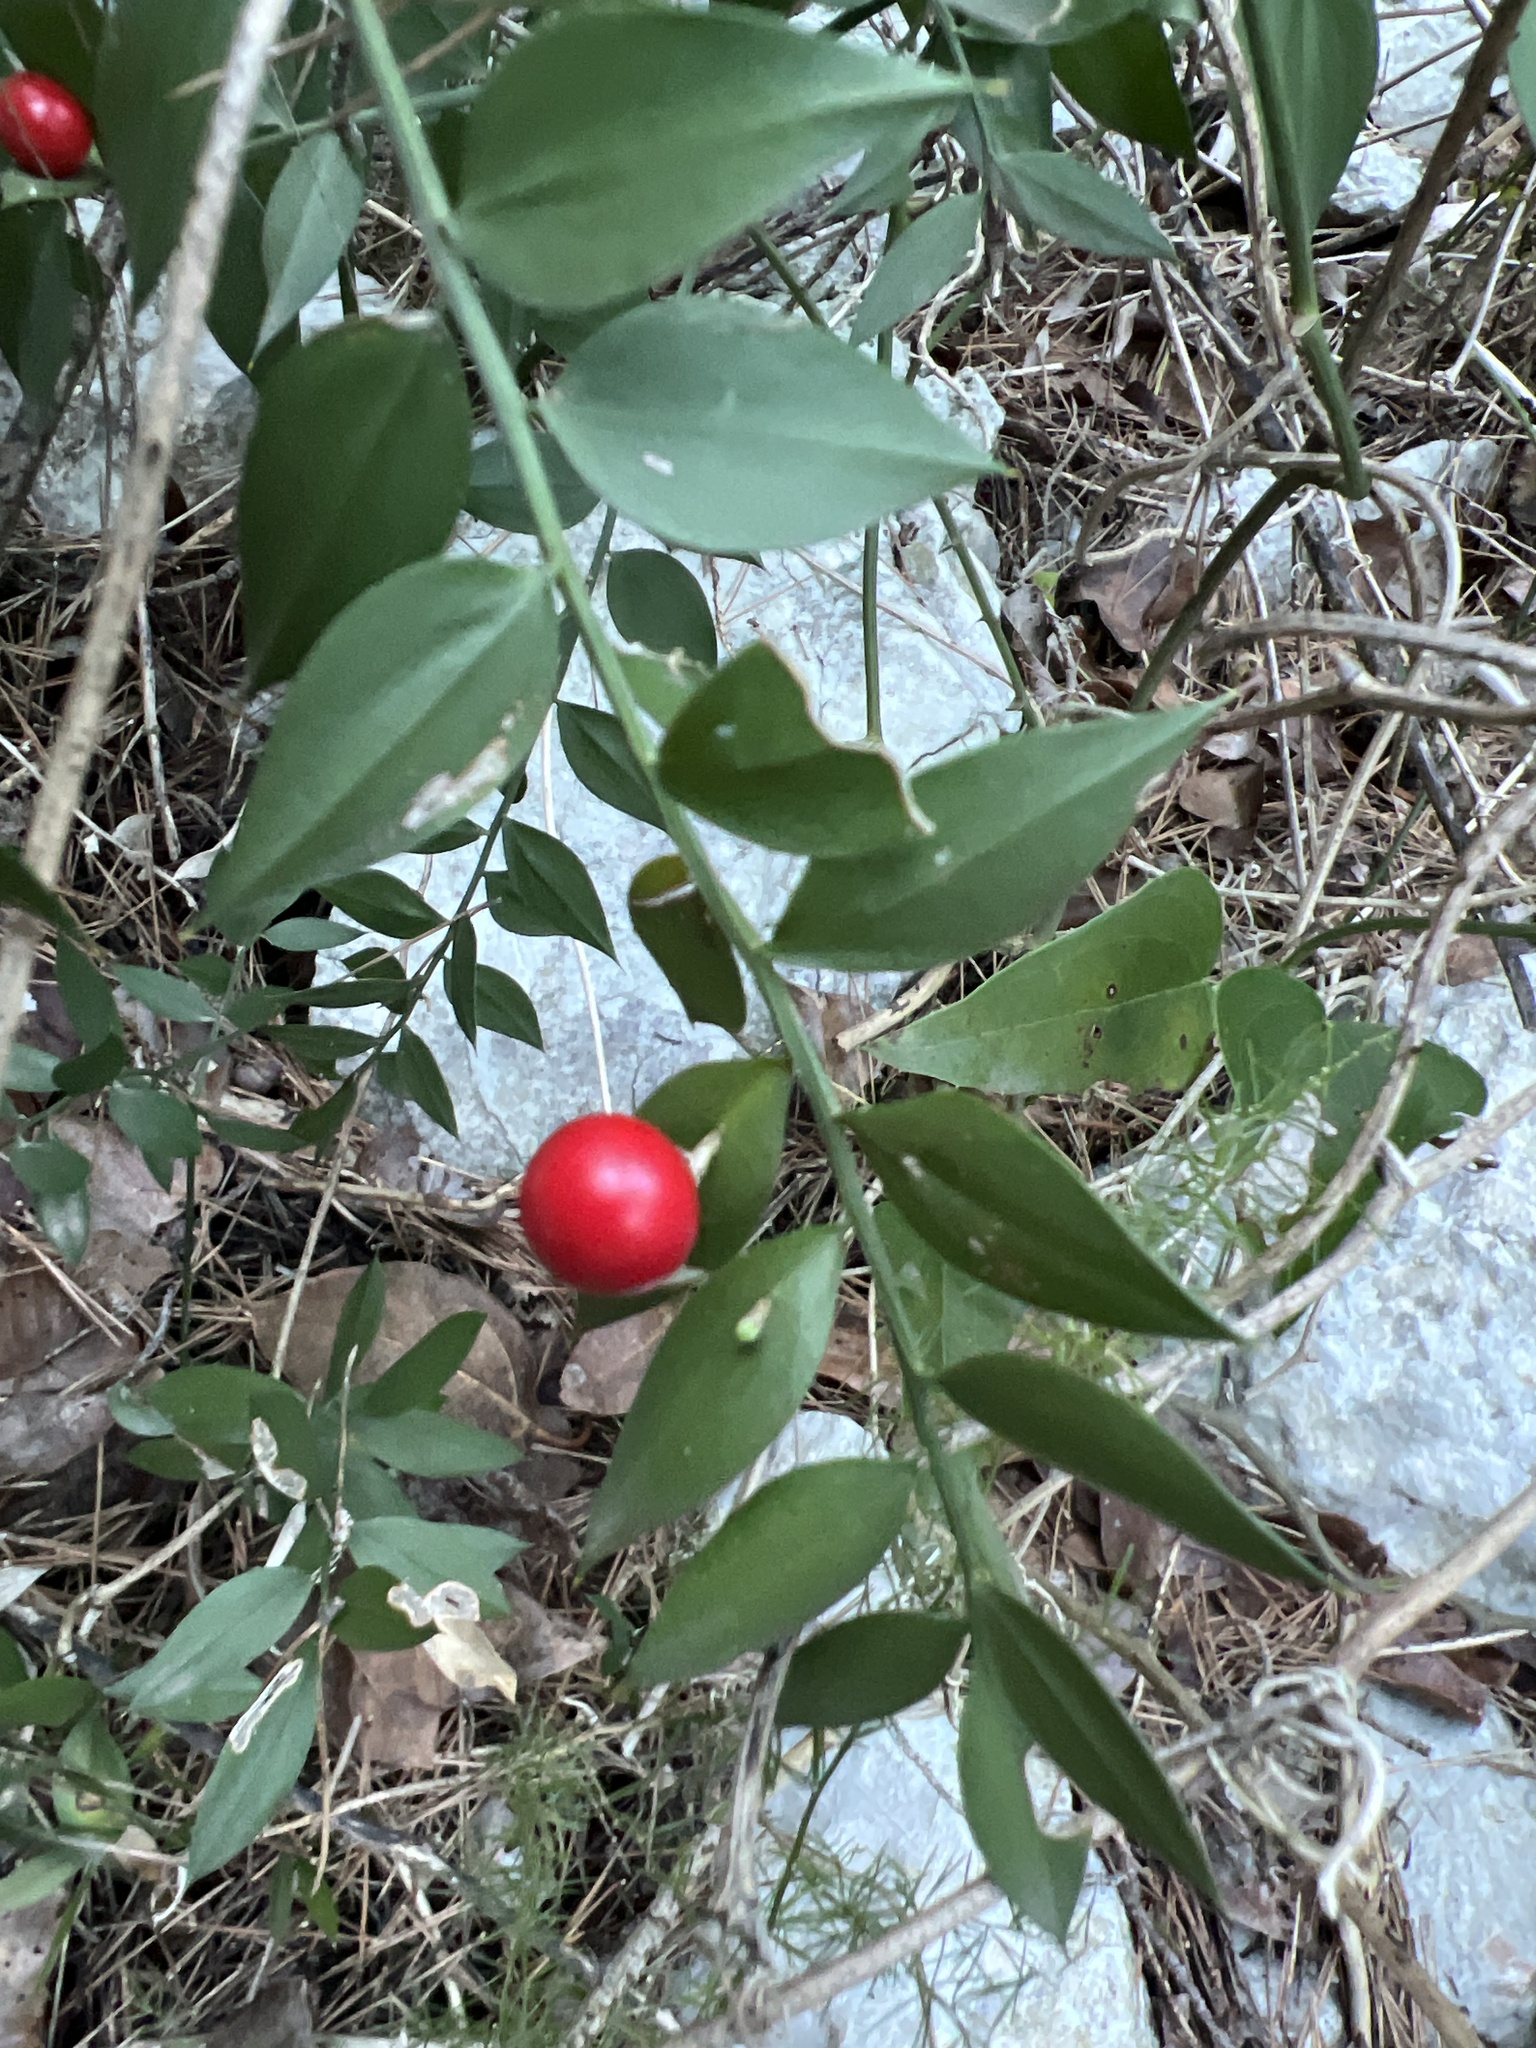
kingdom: Plantae
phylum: Tracheophyta
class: Liliopsida
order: Asparagales
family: Asparagaceae
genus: Ruscus
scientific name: Ruscus aculeatus
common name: Butcher's-broom
